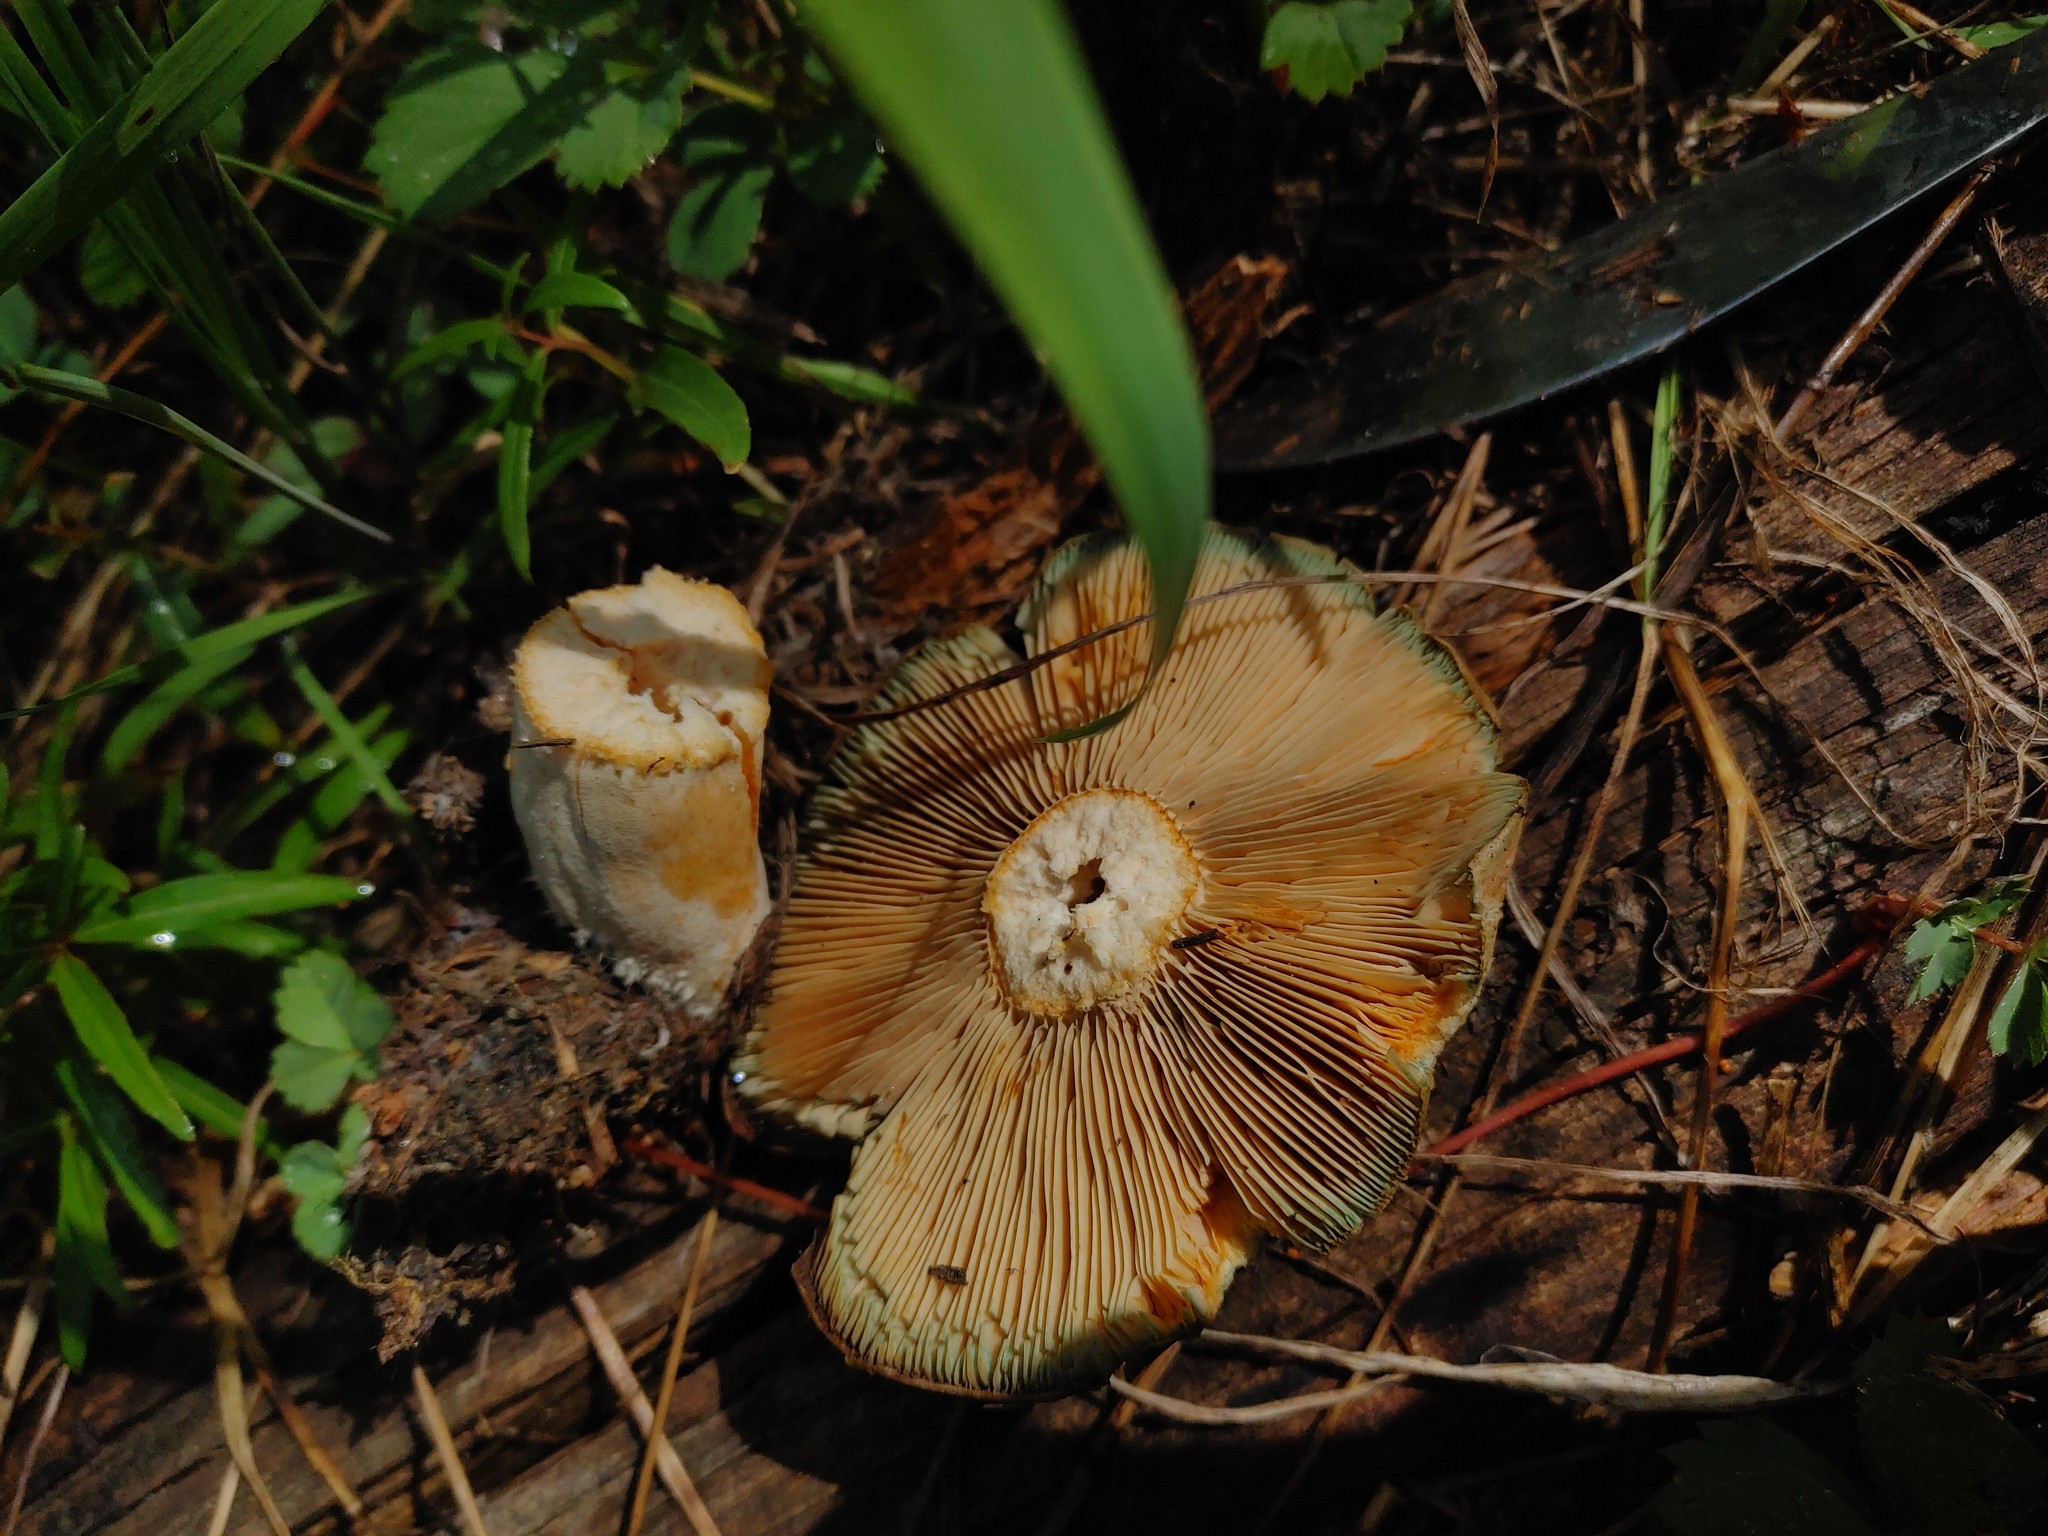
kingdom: Fungi
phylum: Basidiomycota
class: Agaricomycetes
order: Russulales
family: Russulaceae
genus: Lactarius
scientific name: Lactarius deliciosus
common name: Saffron milk-cap
